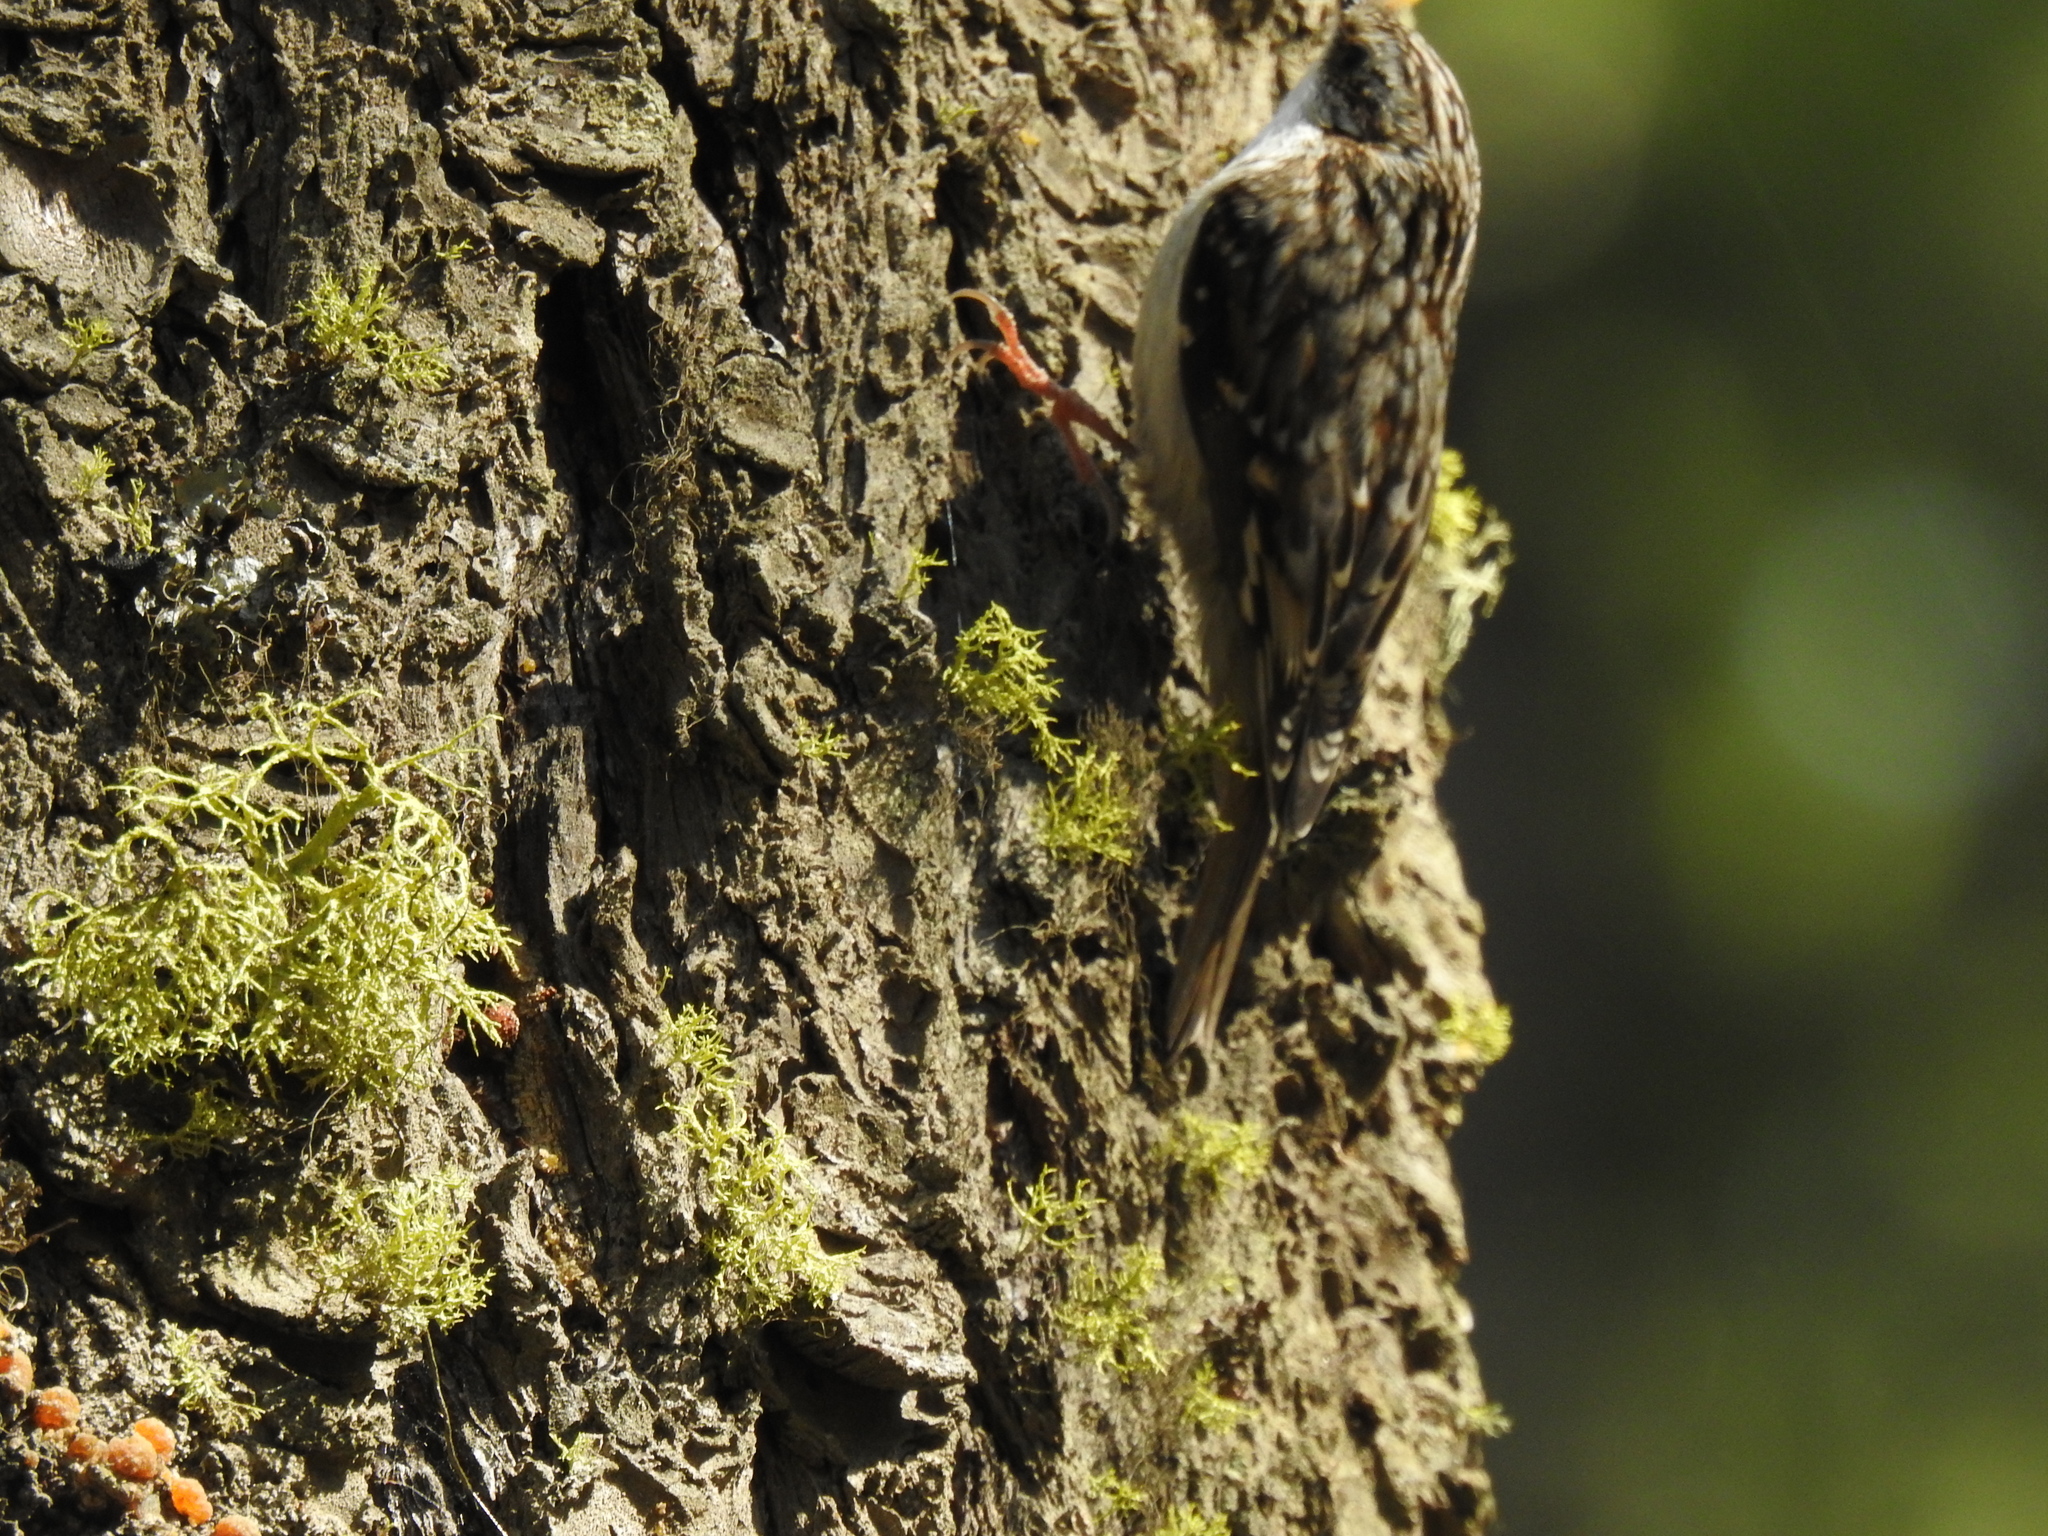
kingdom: Animalia
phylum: Chordata
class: Aves
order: Passeriformes
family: Certhiidae
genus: Certhia
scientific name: Certhia americana
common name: Brown creeper
